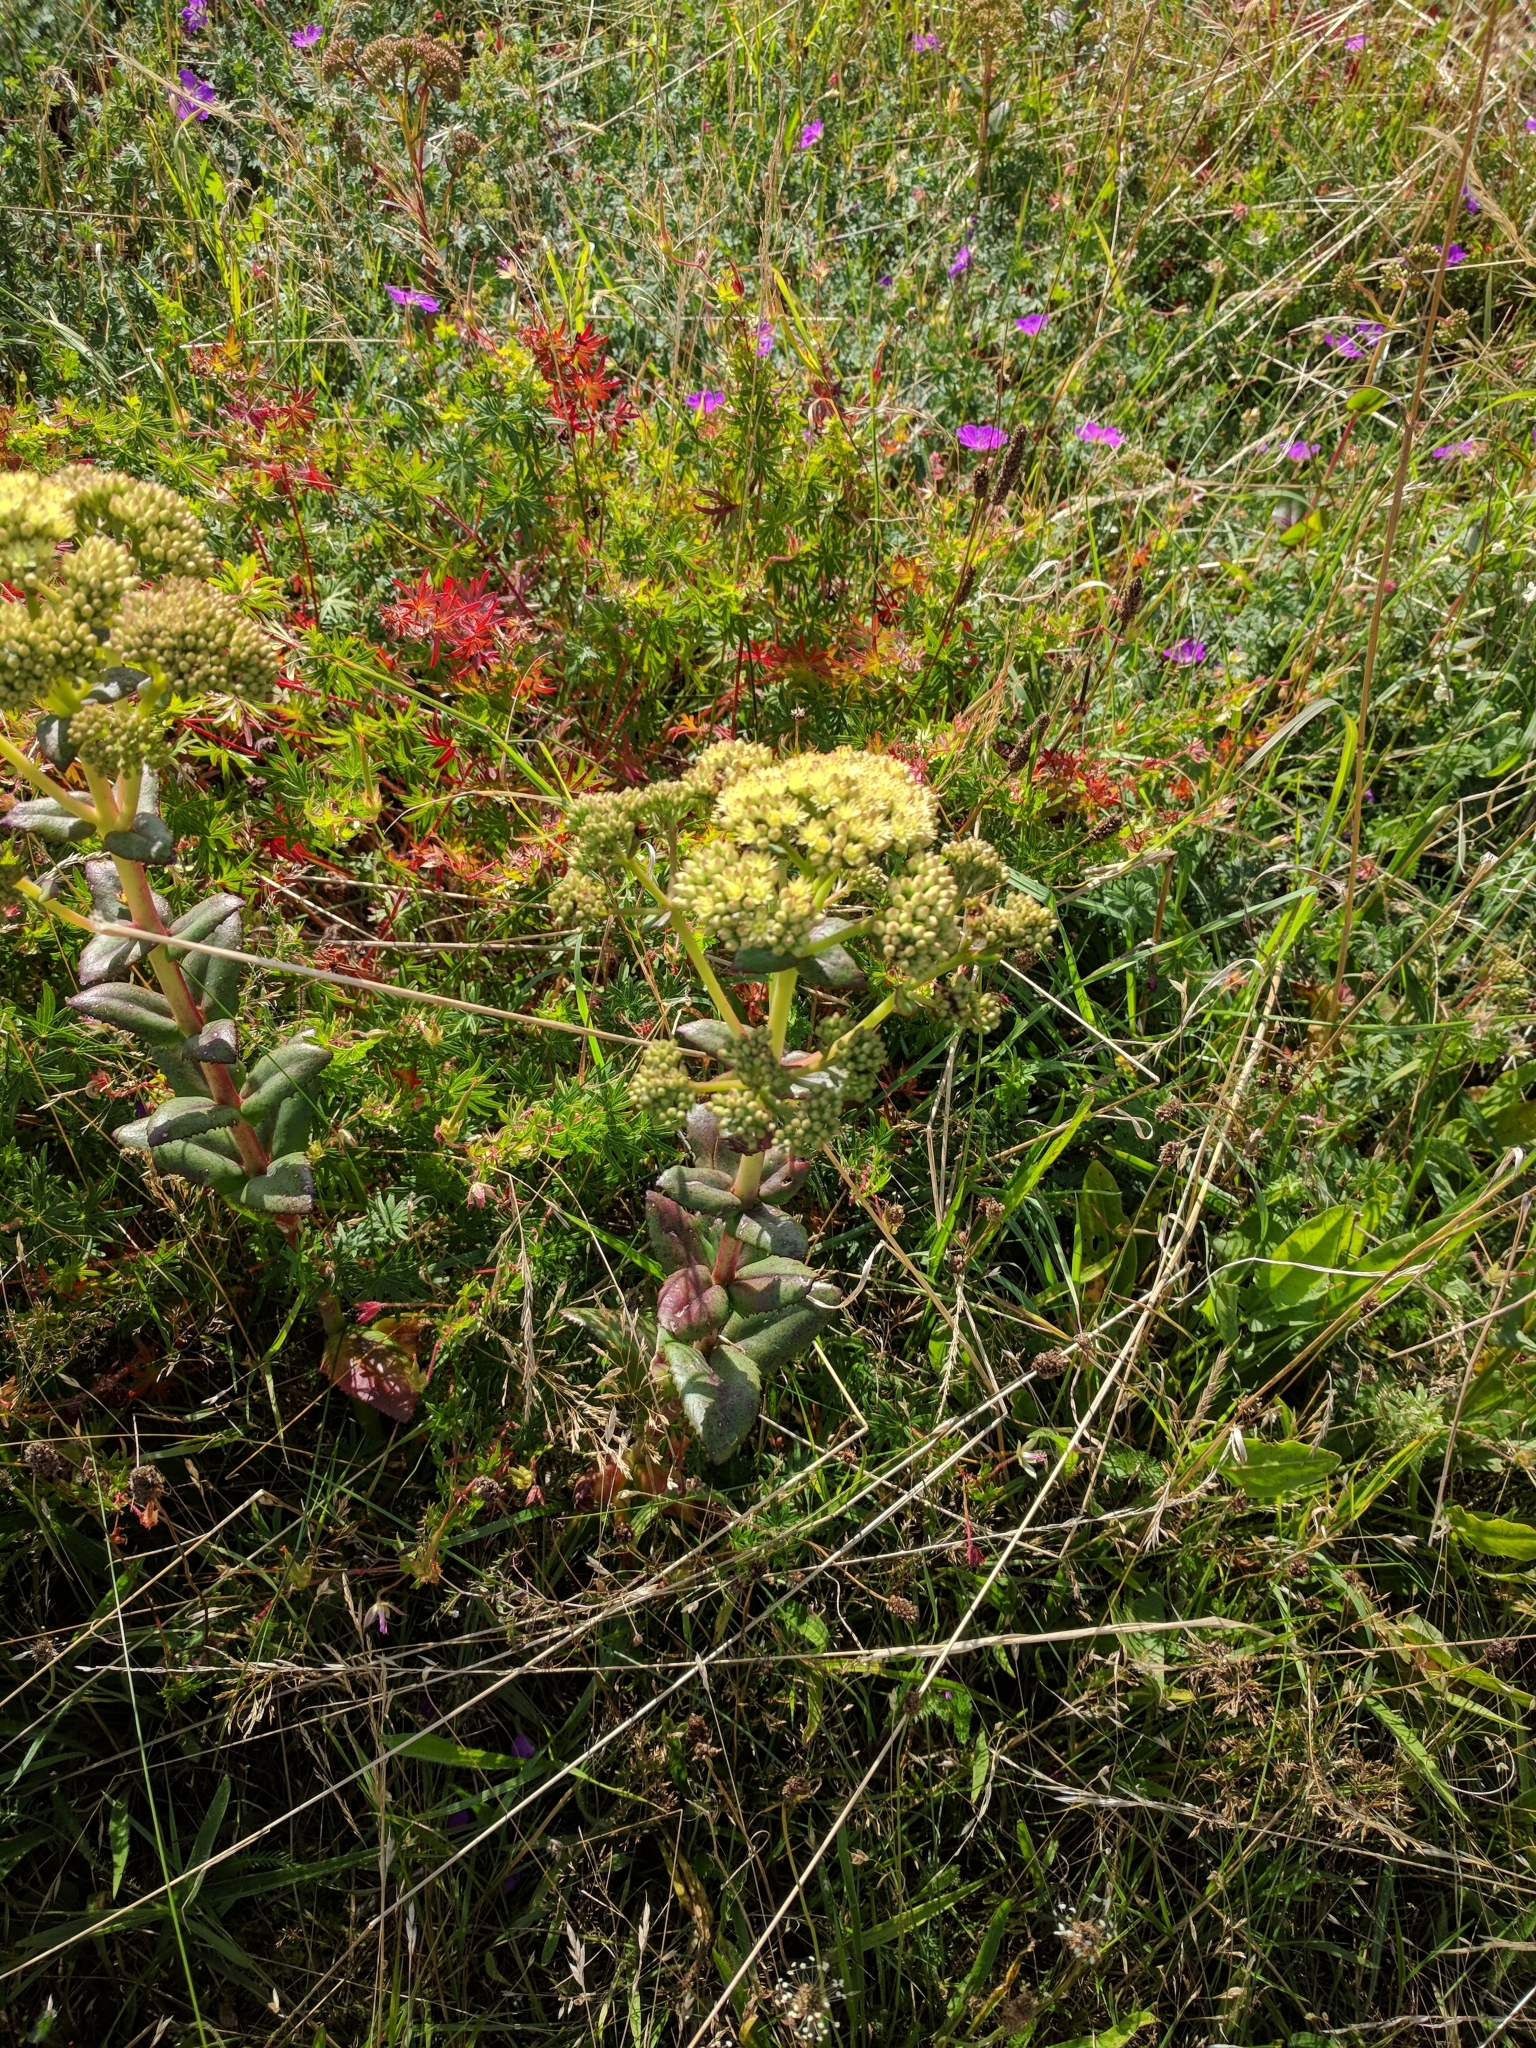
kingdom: Plantae
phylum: Tracheophyta
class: Magnoliopsida
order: Saxifragales
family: Crassulaceae
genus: Hylotelephium
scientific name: Hylotelephium maximum
